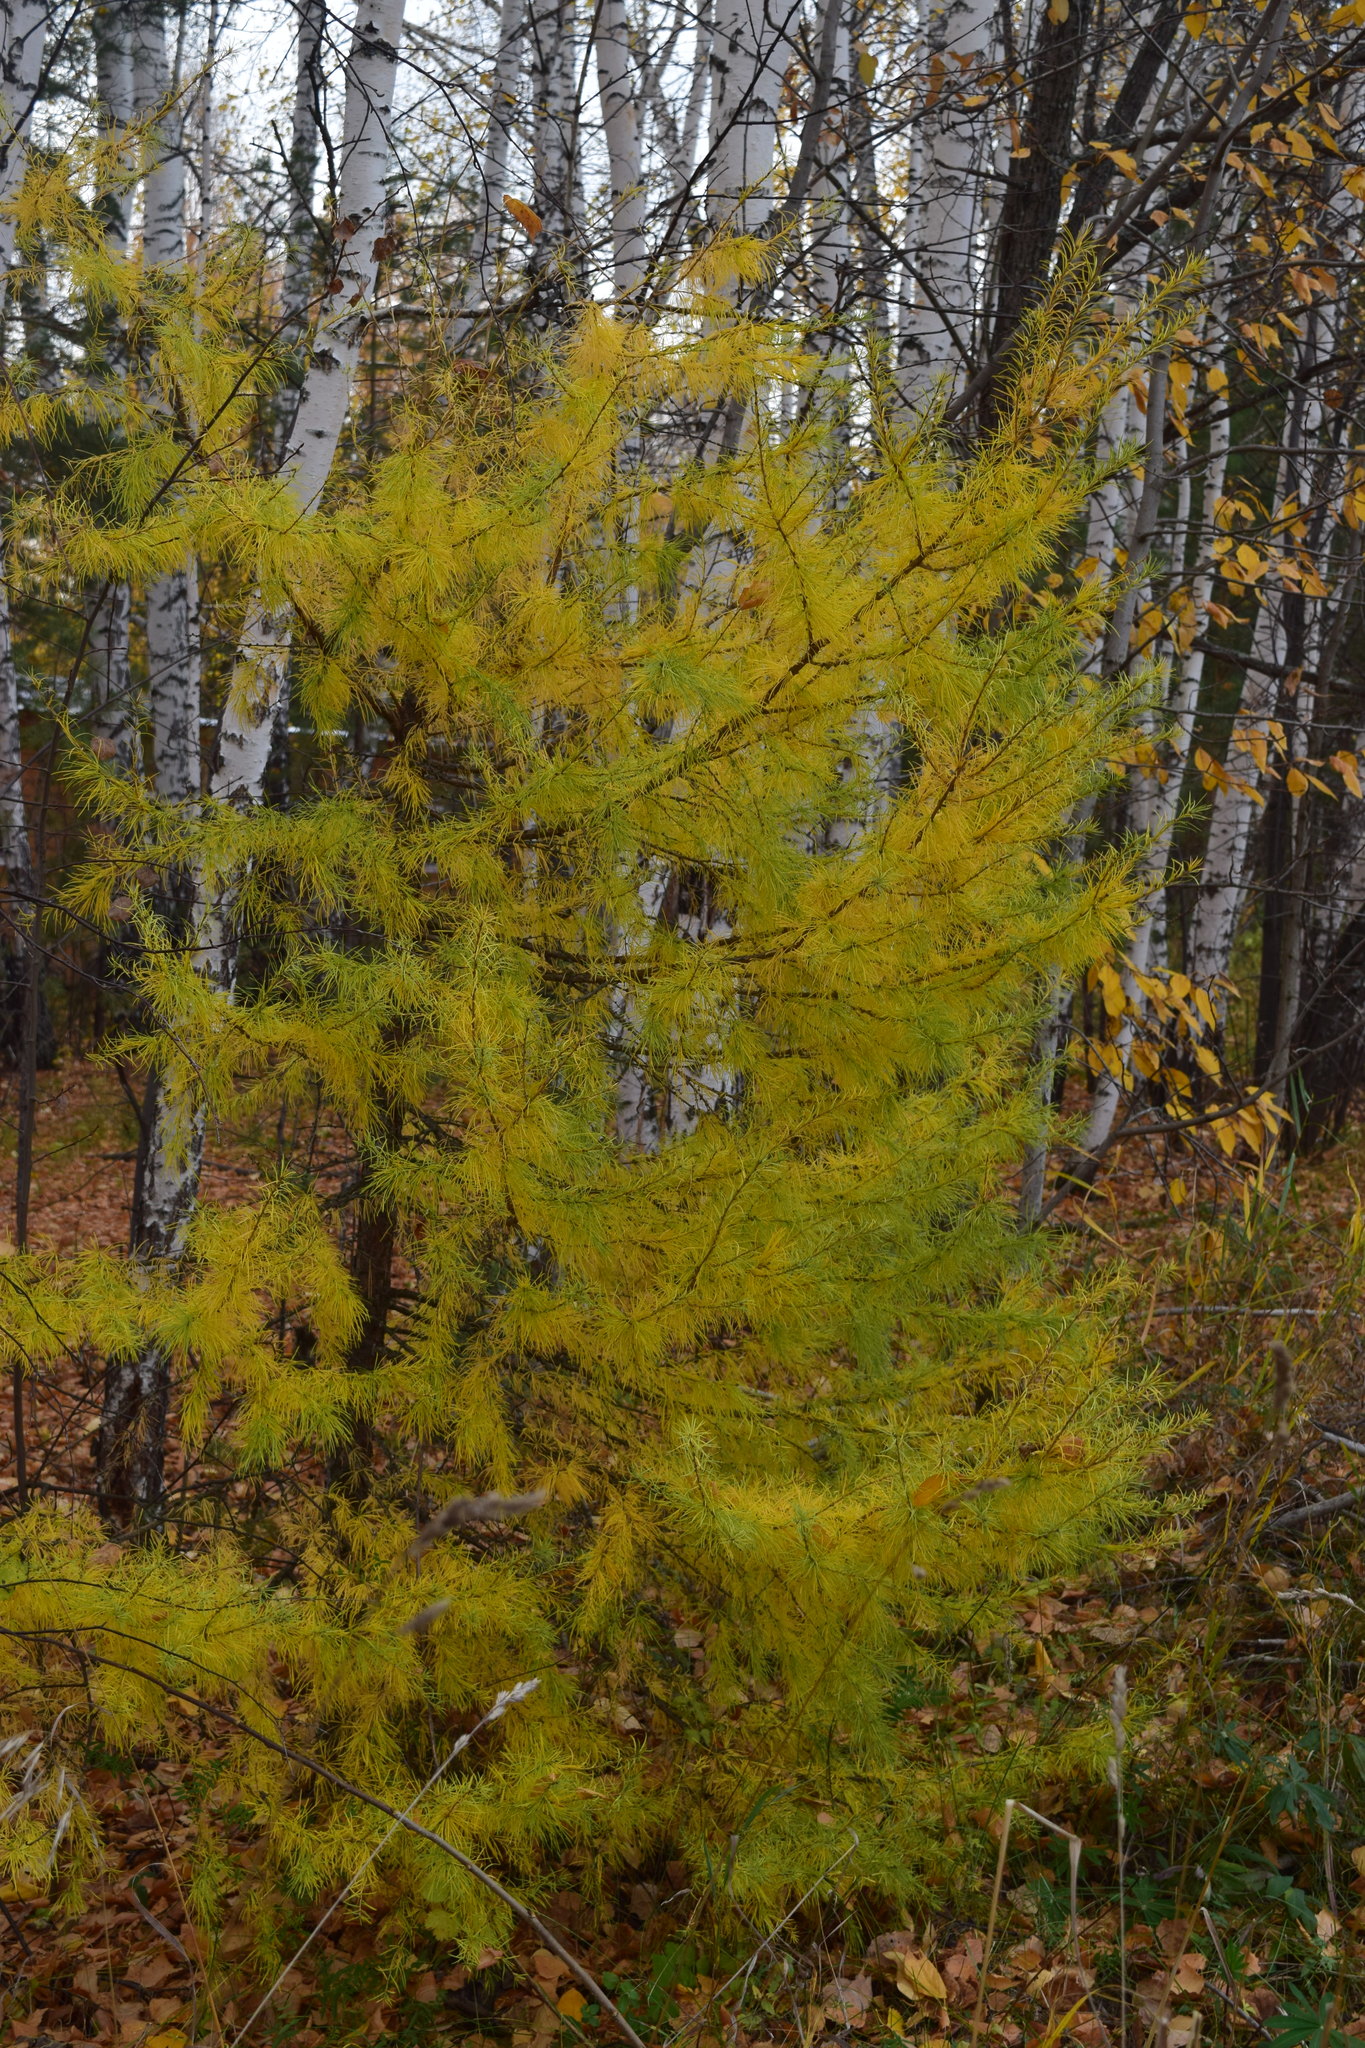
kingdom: Plantae
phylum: Tracheophyta
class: Pinopsida
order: Pinales
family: Pinaceae
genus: Larix
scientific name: Larix sibirica
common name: Siberian larch
